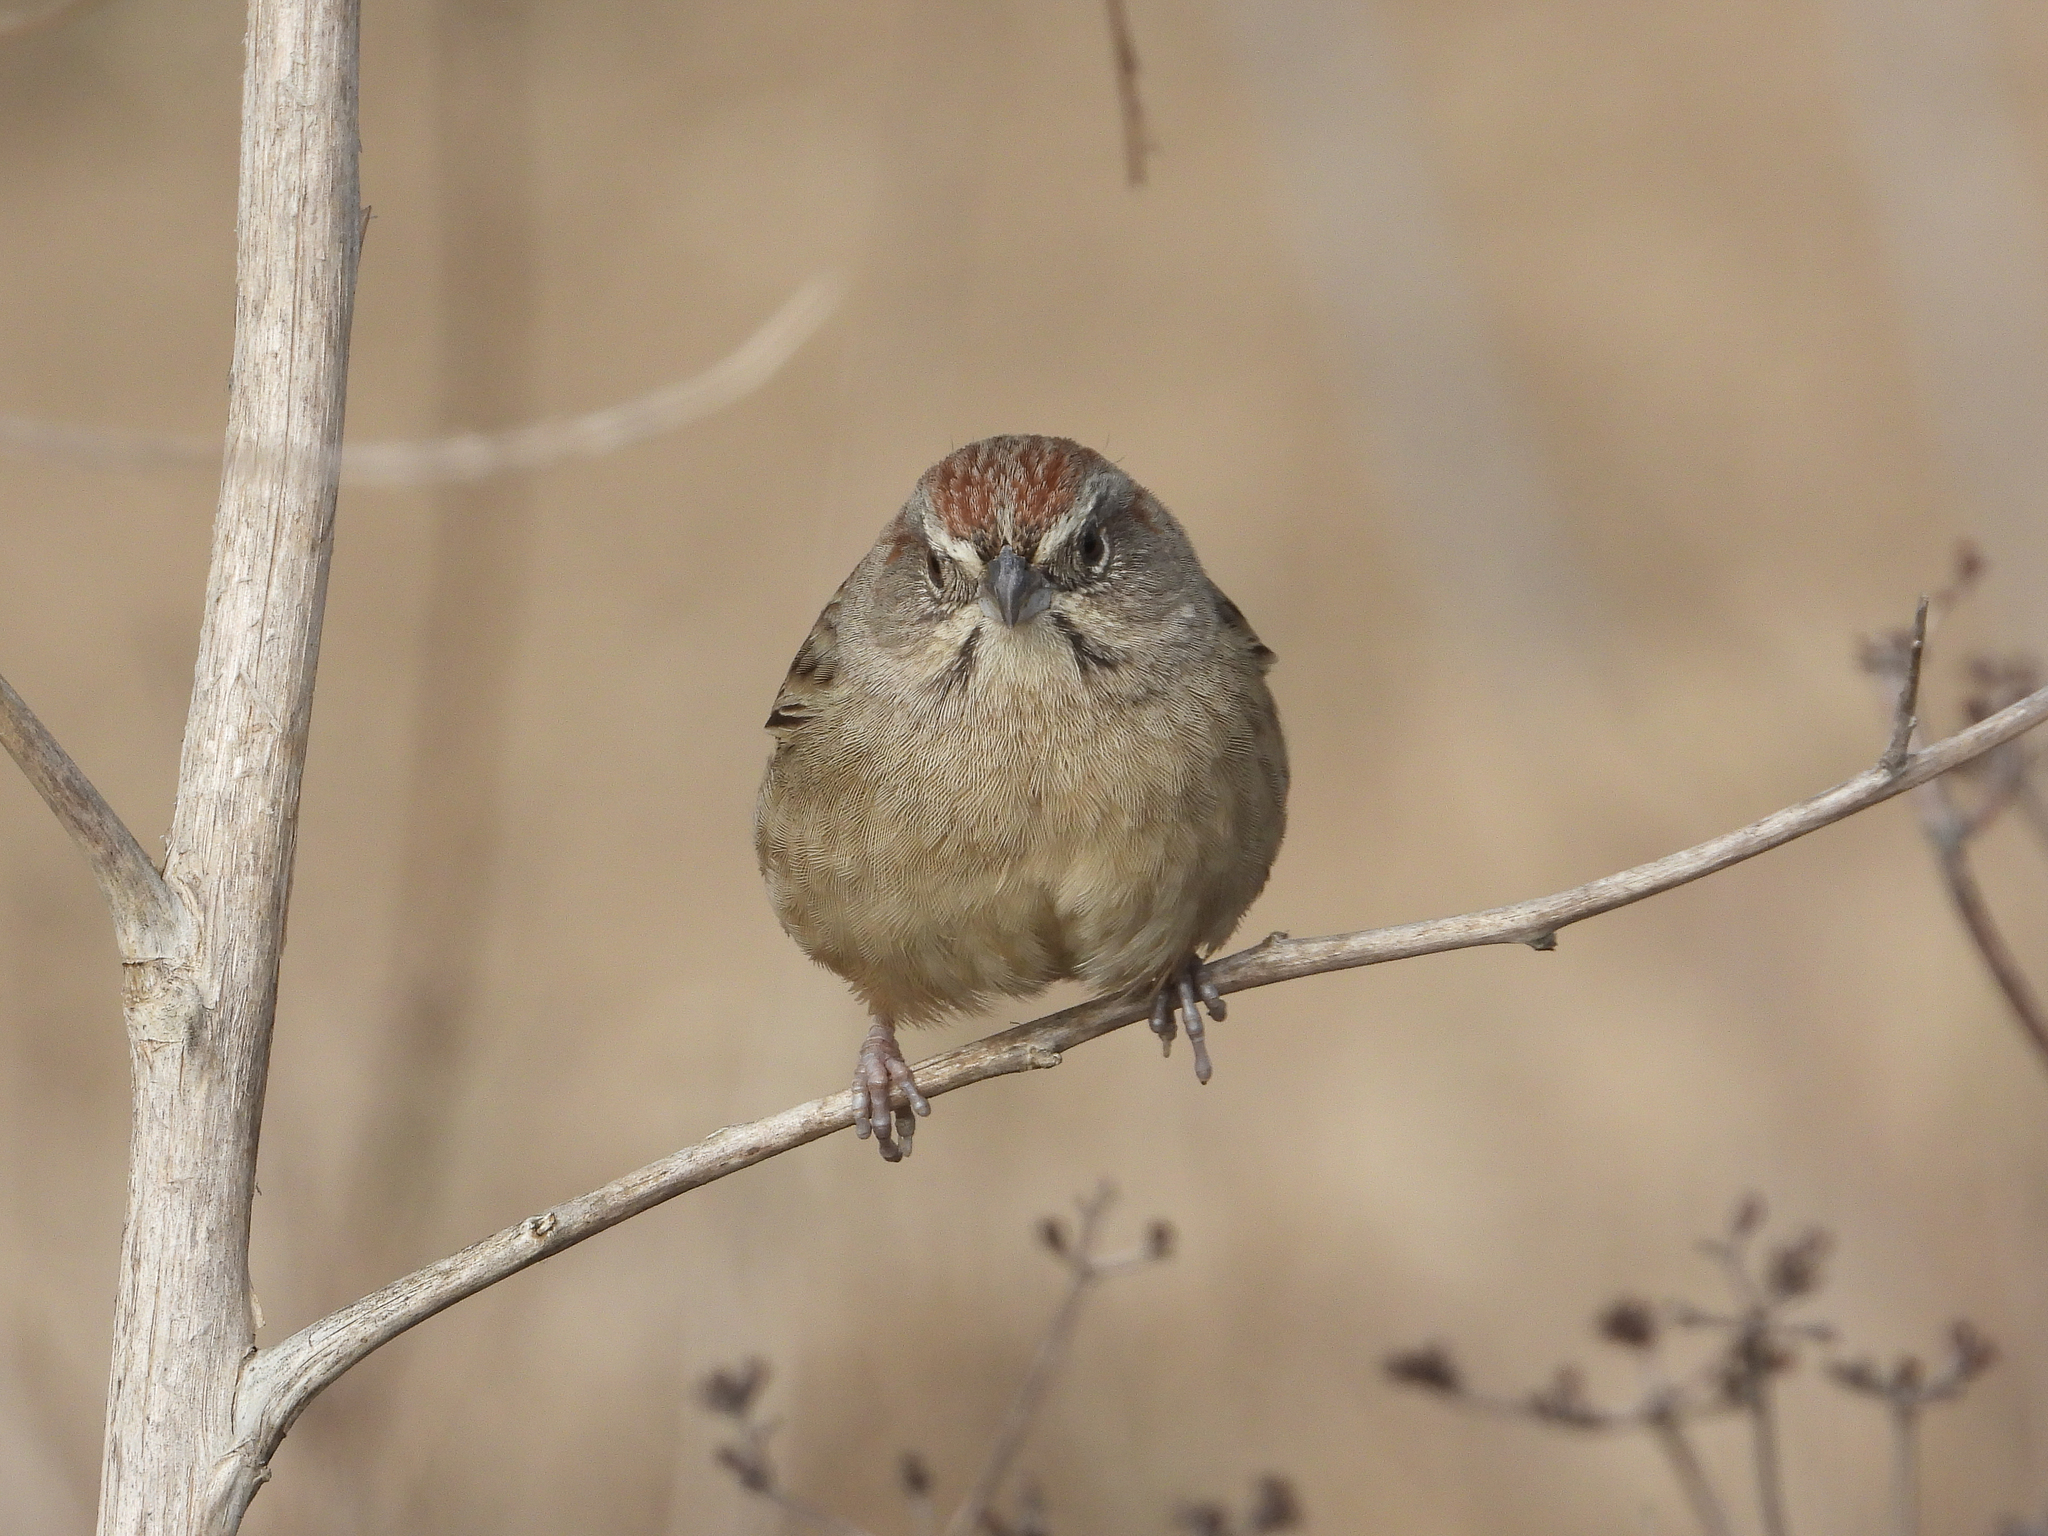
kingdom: Animalia
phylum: Chordata
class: Aves
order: Passeriformes
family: Passerellidae
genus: Aimophila
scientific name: Aimophila ruficeps
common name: Rufous-crowned sparrow
